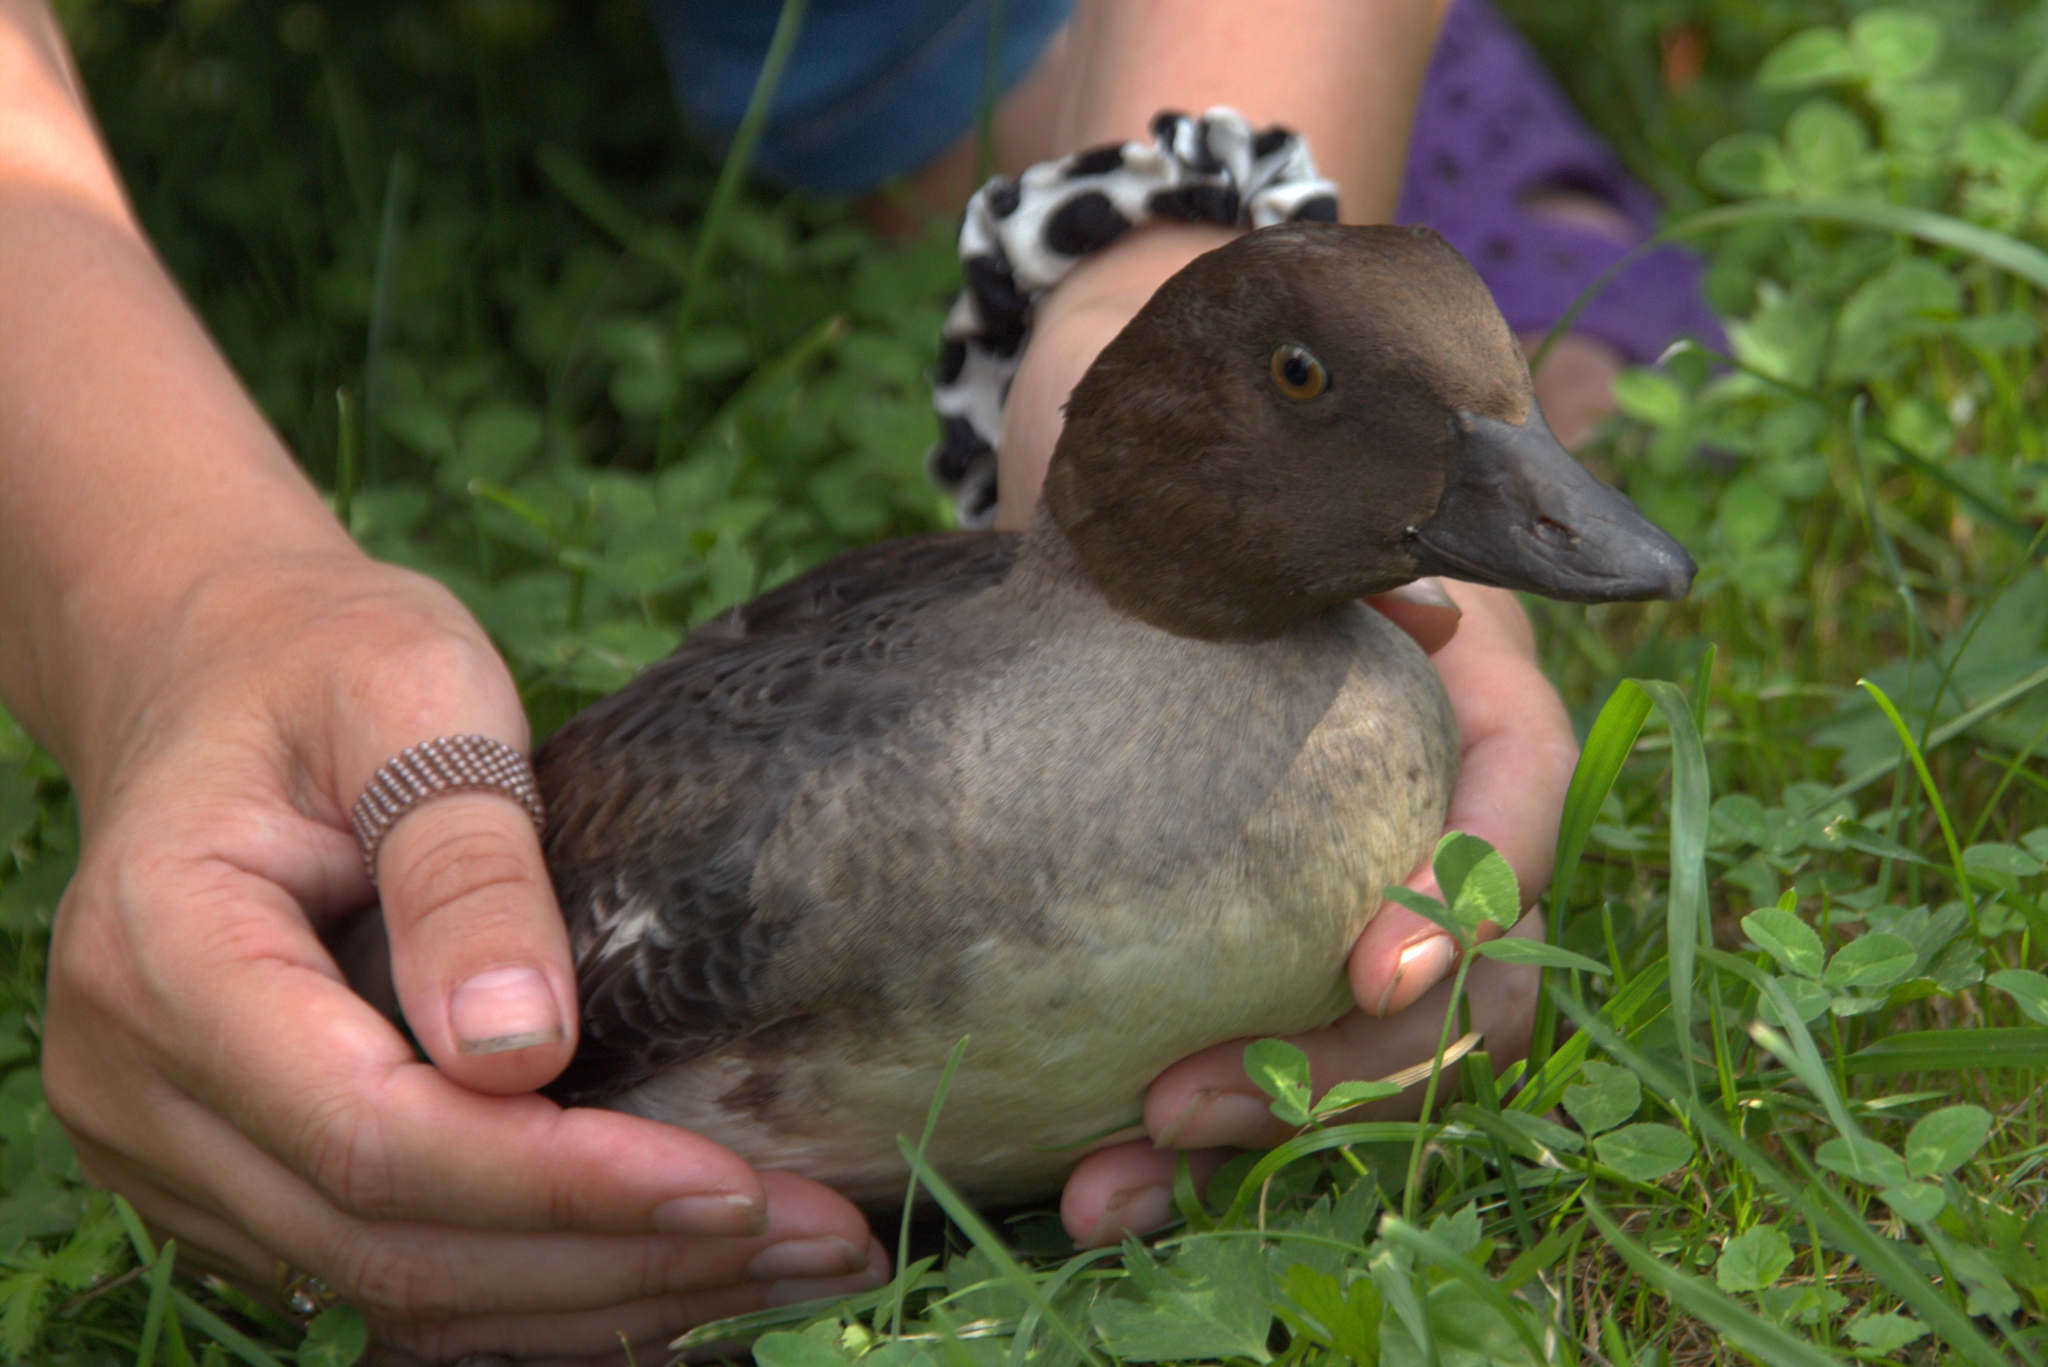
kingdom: Animalia
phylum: Chordata
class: Aves
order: Anseriformes
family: Anatidae
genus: Bucephala
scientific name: Bucephala clangula
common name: Common goldeneye
